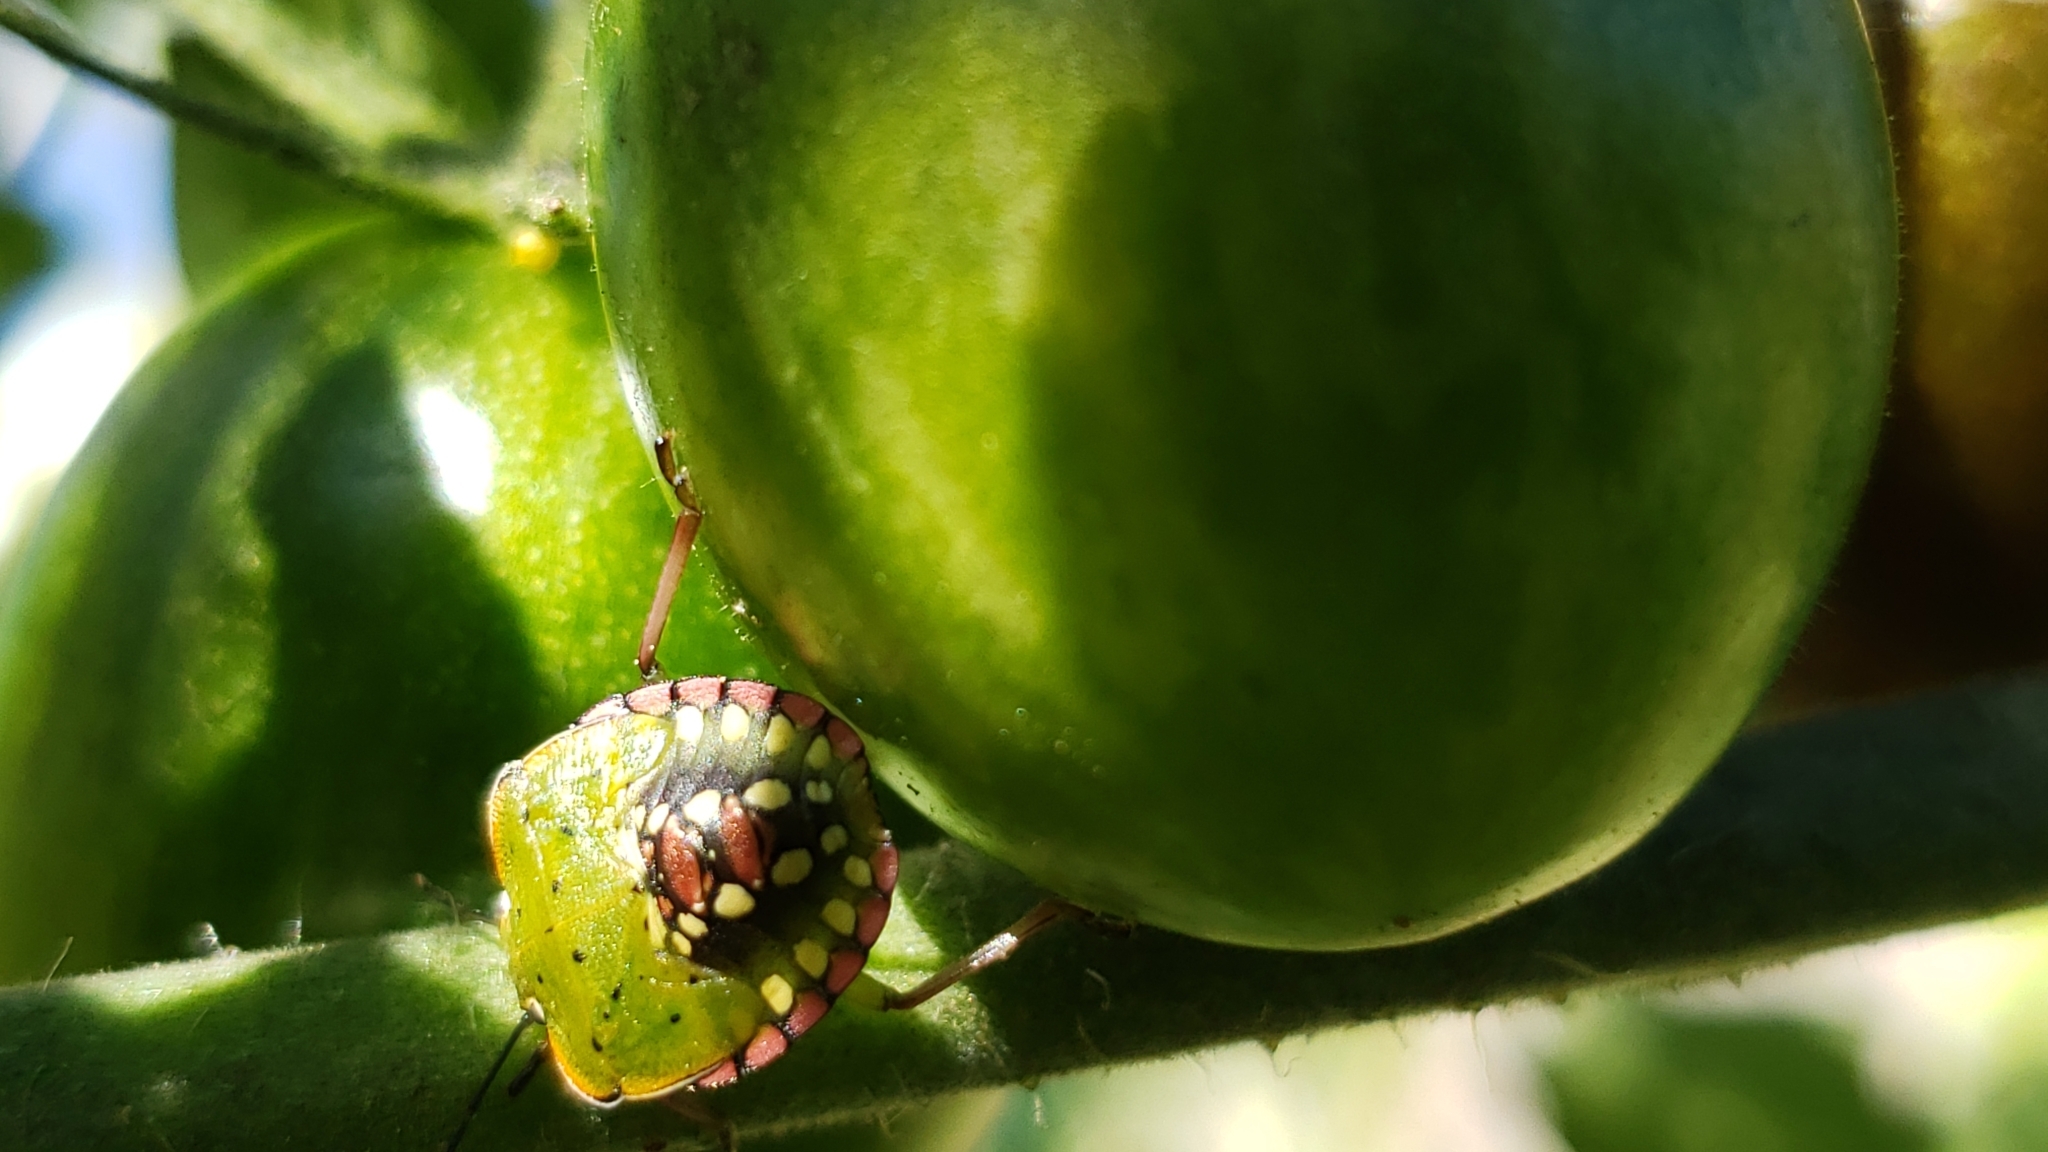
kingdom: Animalia
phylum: Arthropoda
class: Insecta
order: Hemiptera
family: Pentatomidae
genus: Nezara
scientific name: Nezara viridula
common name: Southern green stink bug
